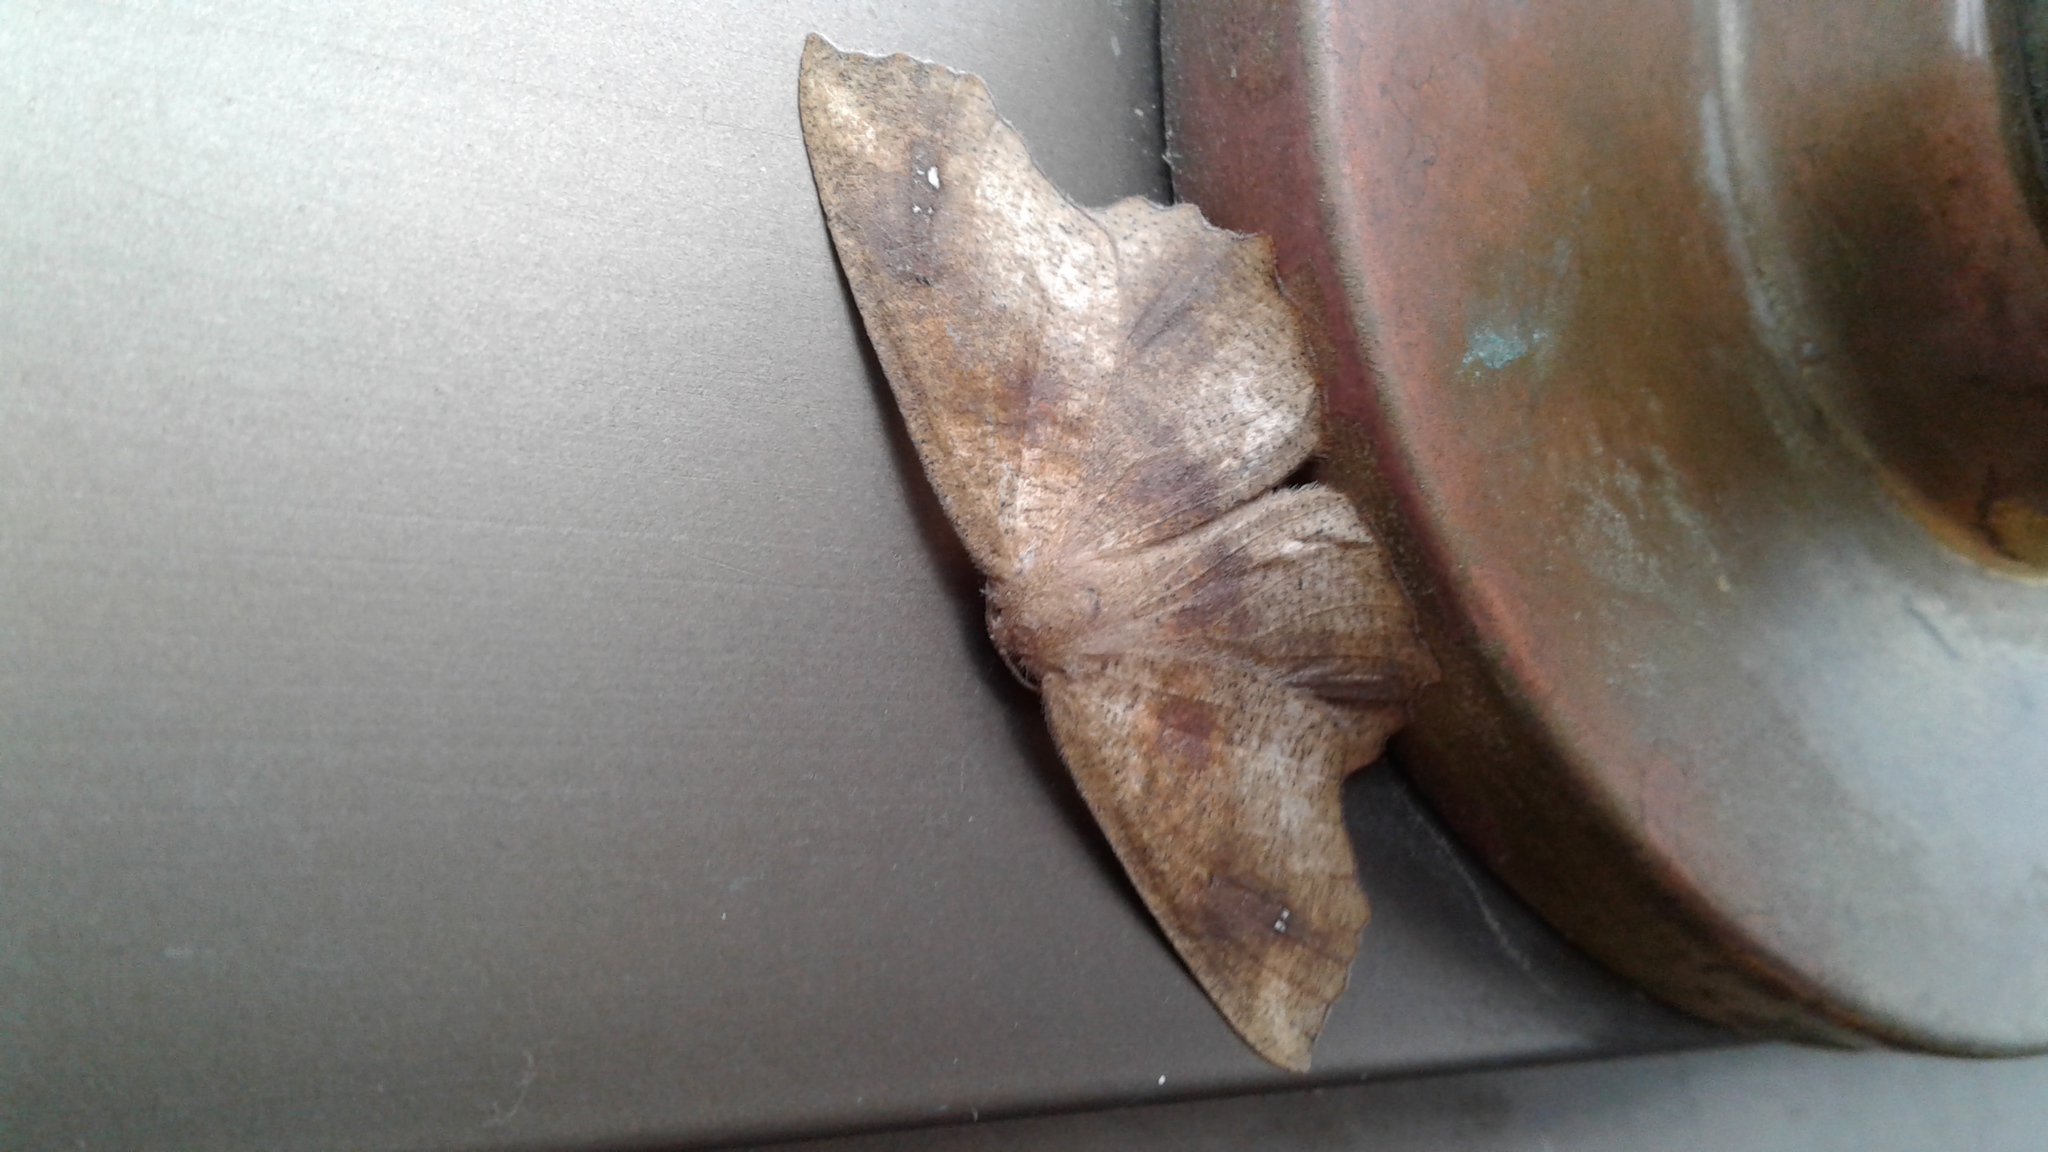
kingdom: Animalia
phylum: Arthropoda
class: Insecta
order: Lepidoptera
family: Geometridae
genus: Xyridacma
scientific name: Xyridacma ustaria
